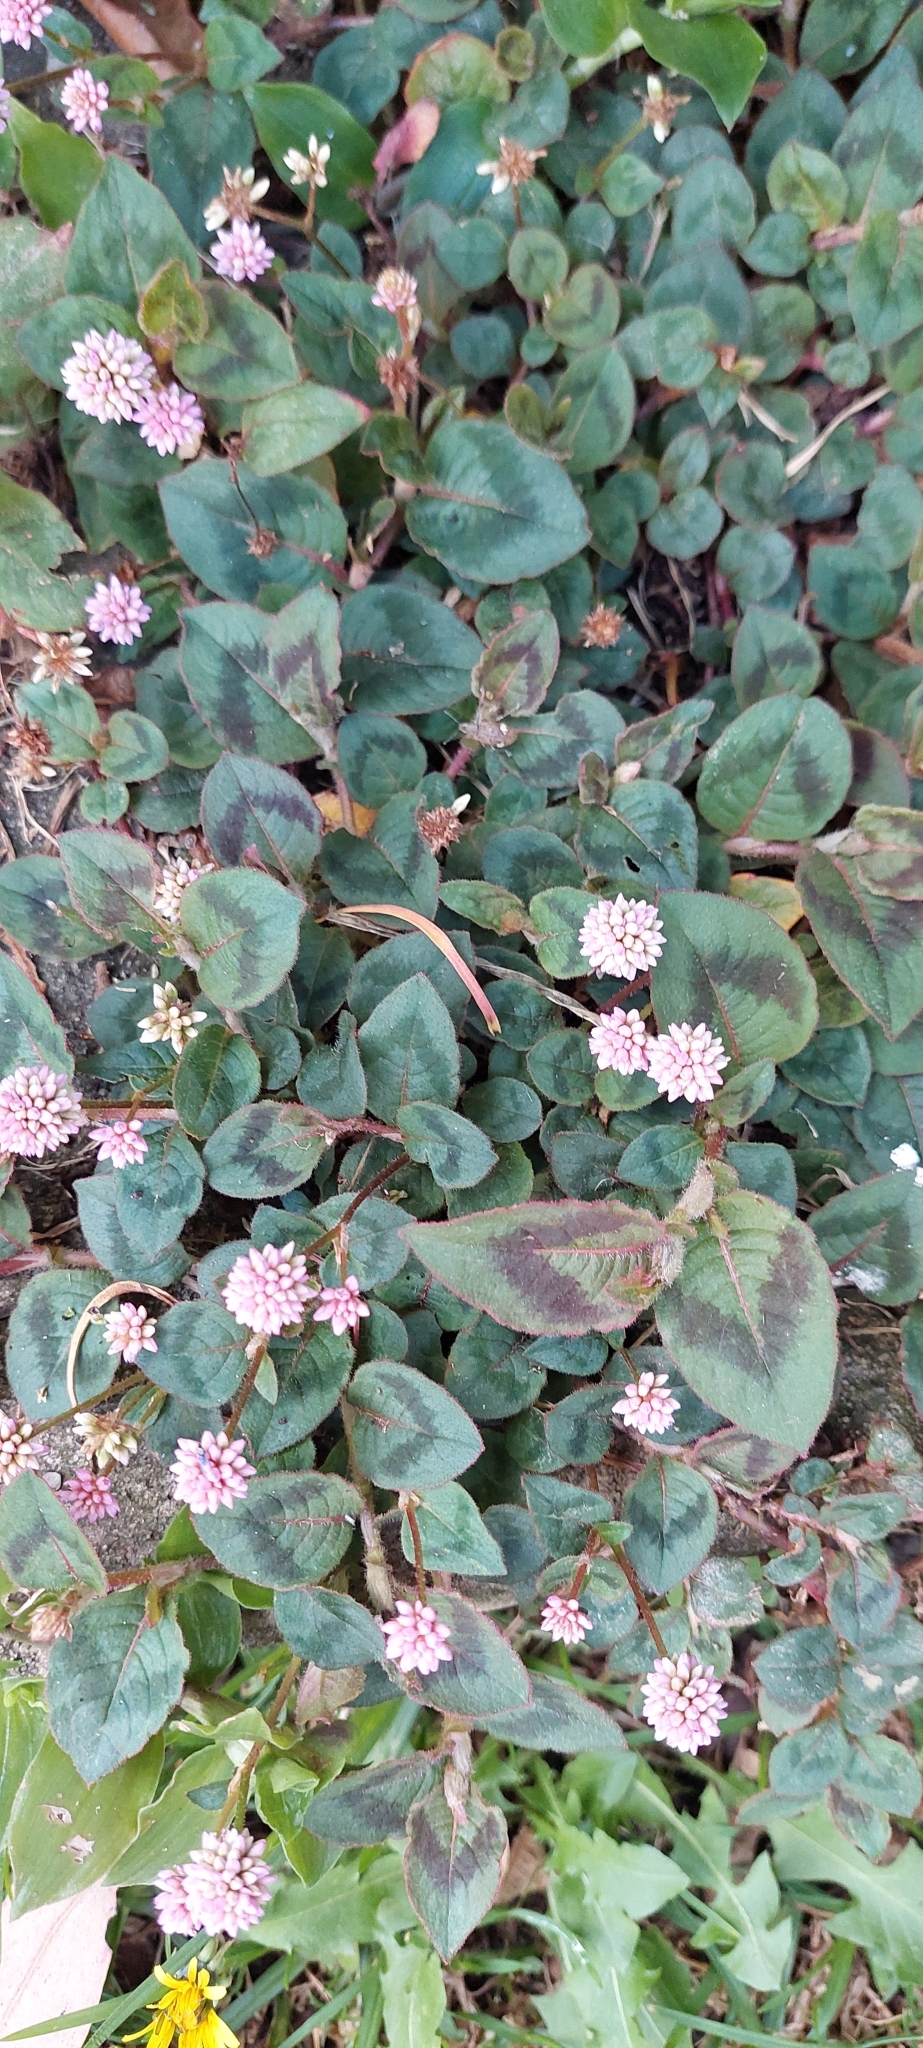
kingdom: Plantae
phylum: Tracheophyta
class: Magnoliopsida
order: Caryophyllales
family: Polygonaceae
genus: Persicaria
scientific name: Persicaria capitata
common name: Pinkhead smartweed
